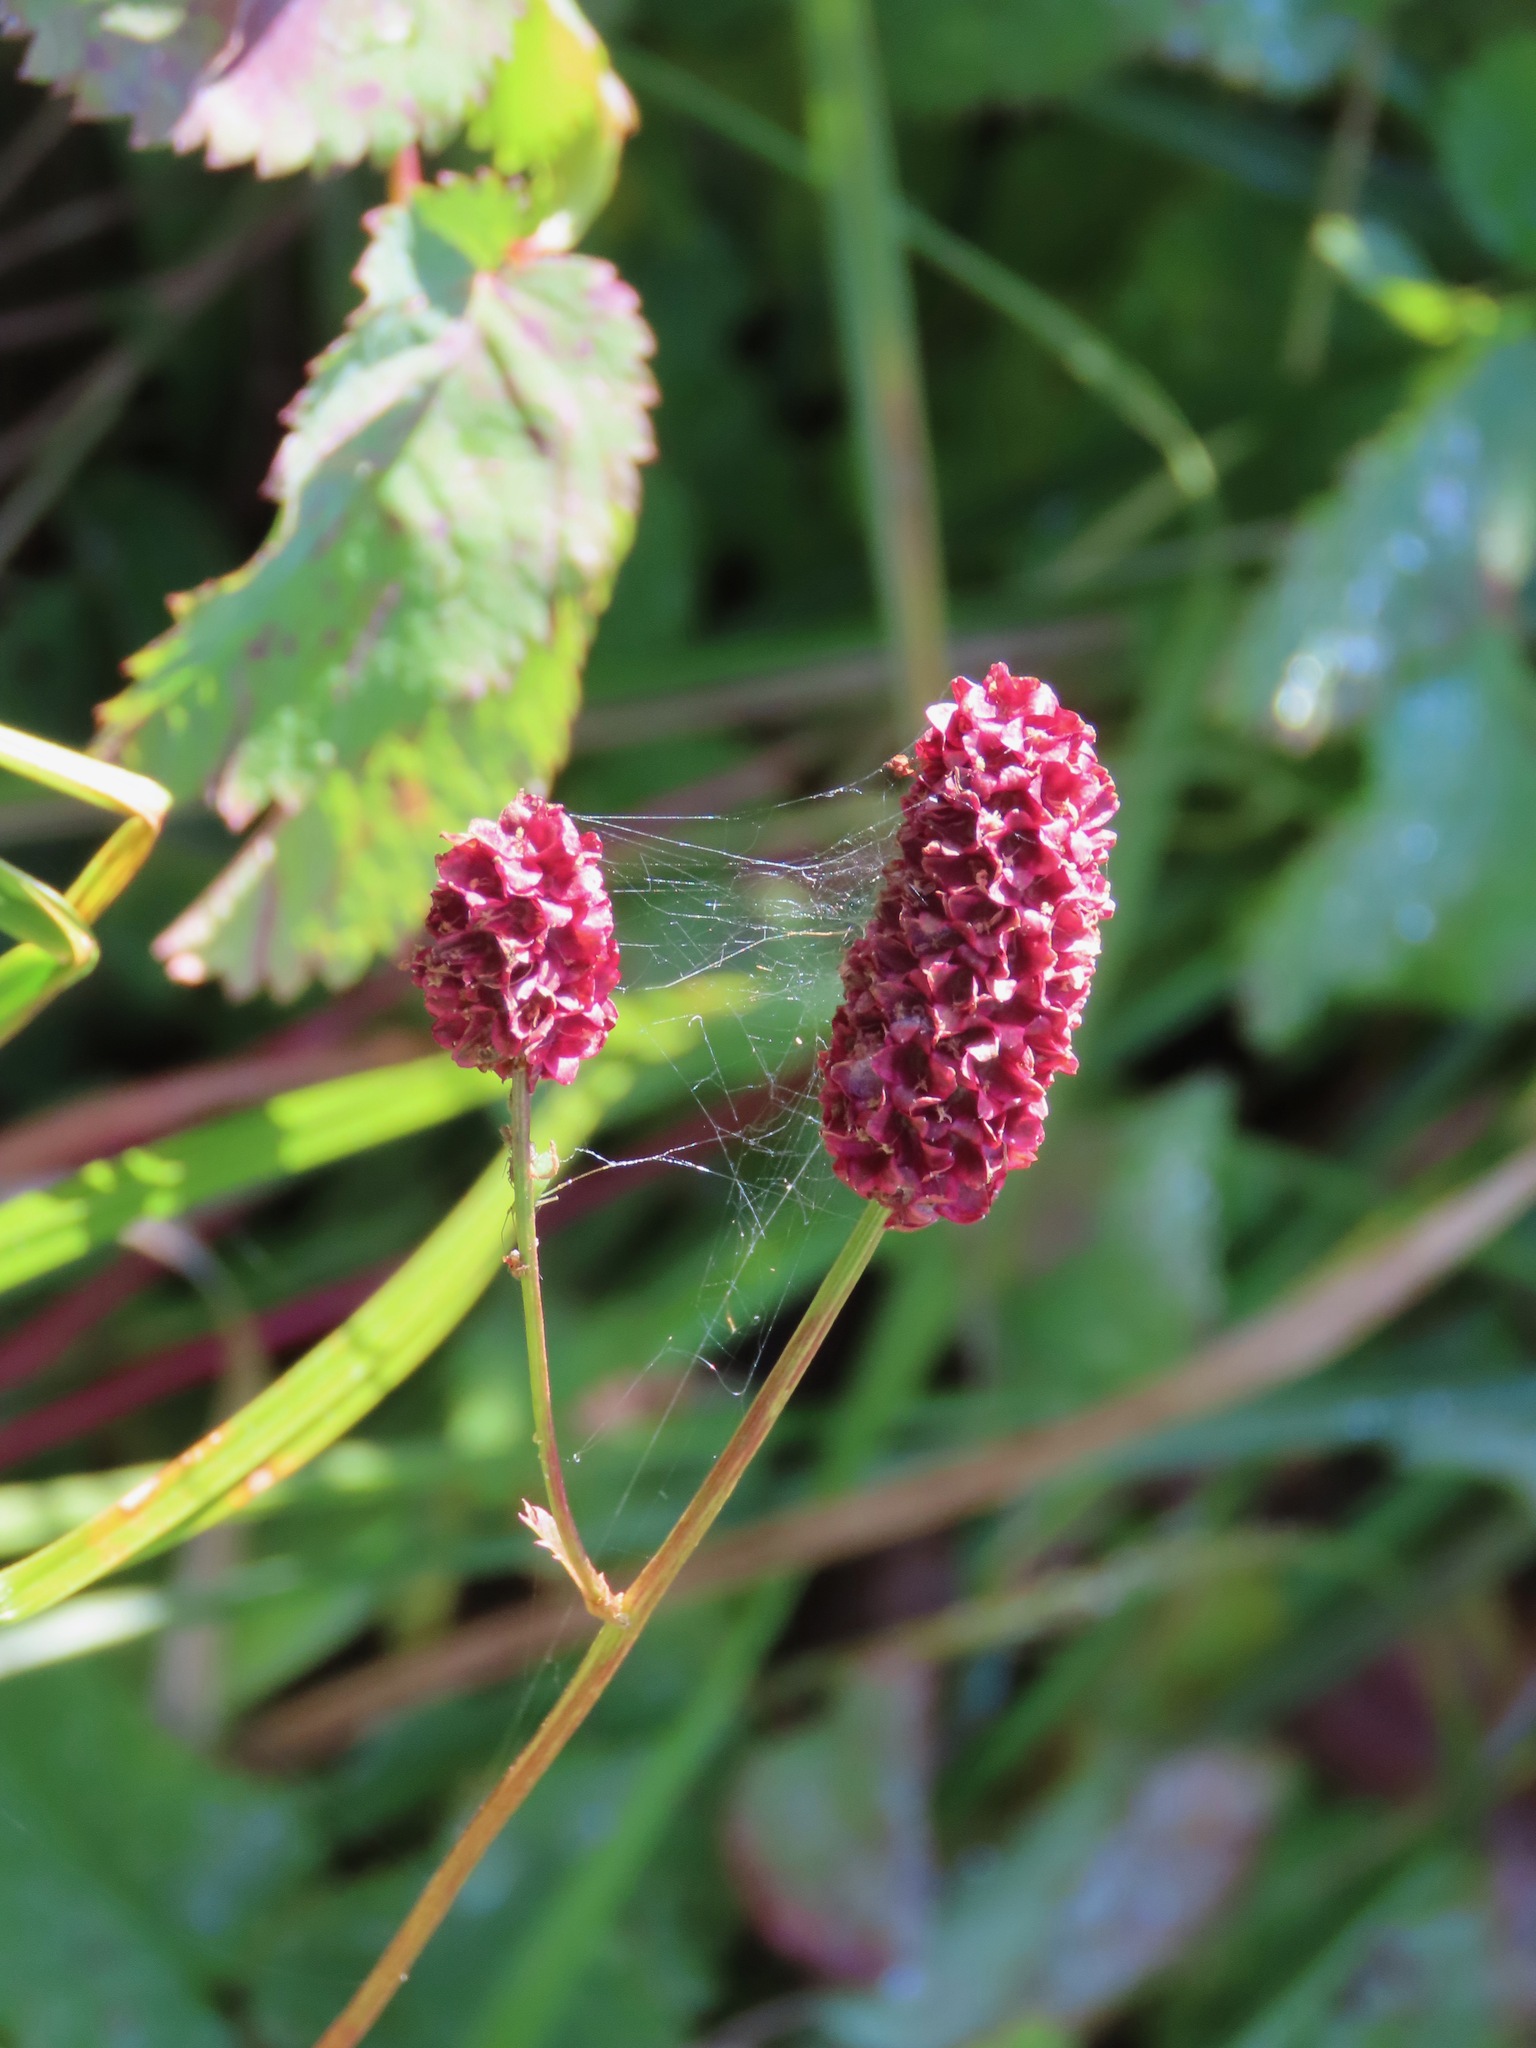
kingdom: Plantae
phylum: Tracheophyta
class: Magnoliopsida
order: Rosales
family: Rosaceae
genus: Sanguisorba
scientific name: Sanguisorba officinalis
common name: Great burnet
